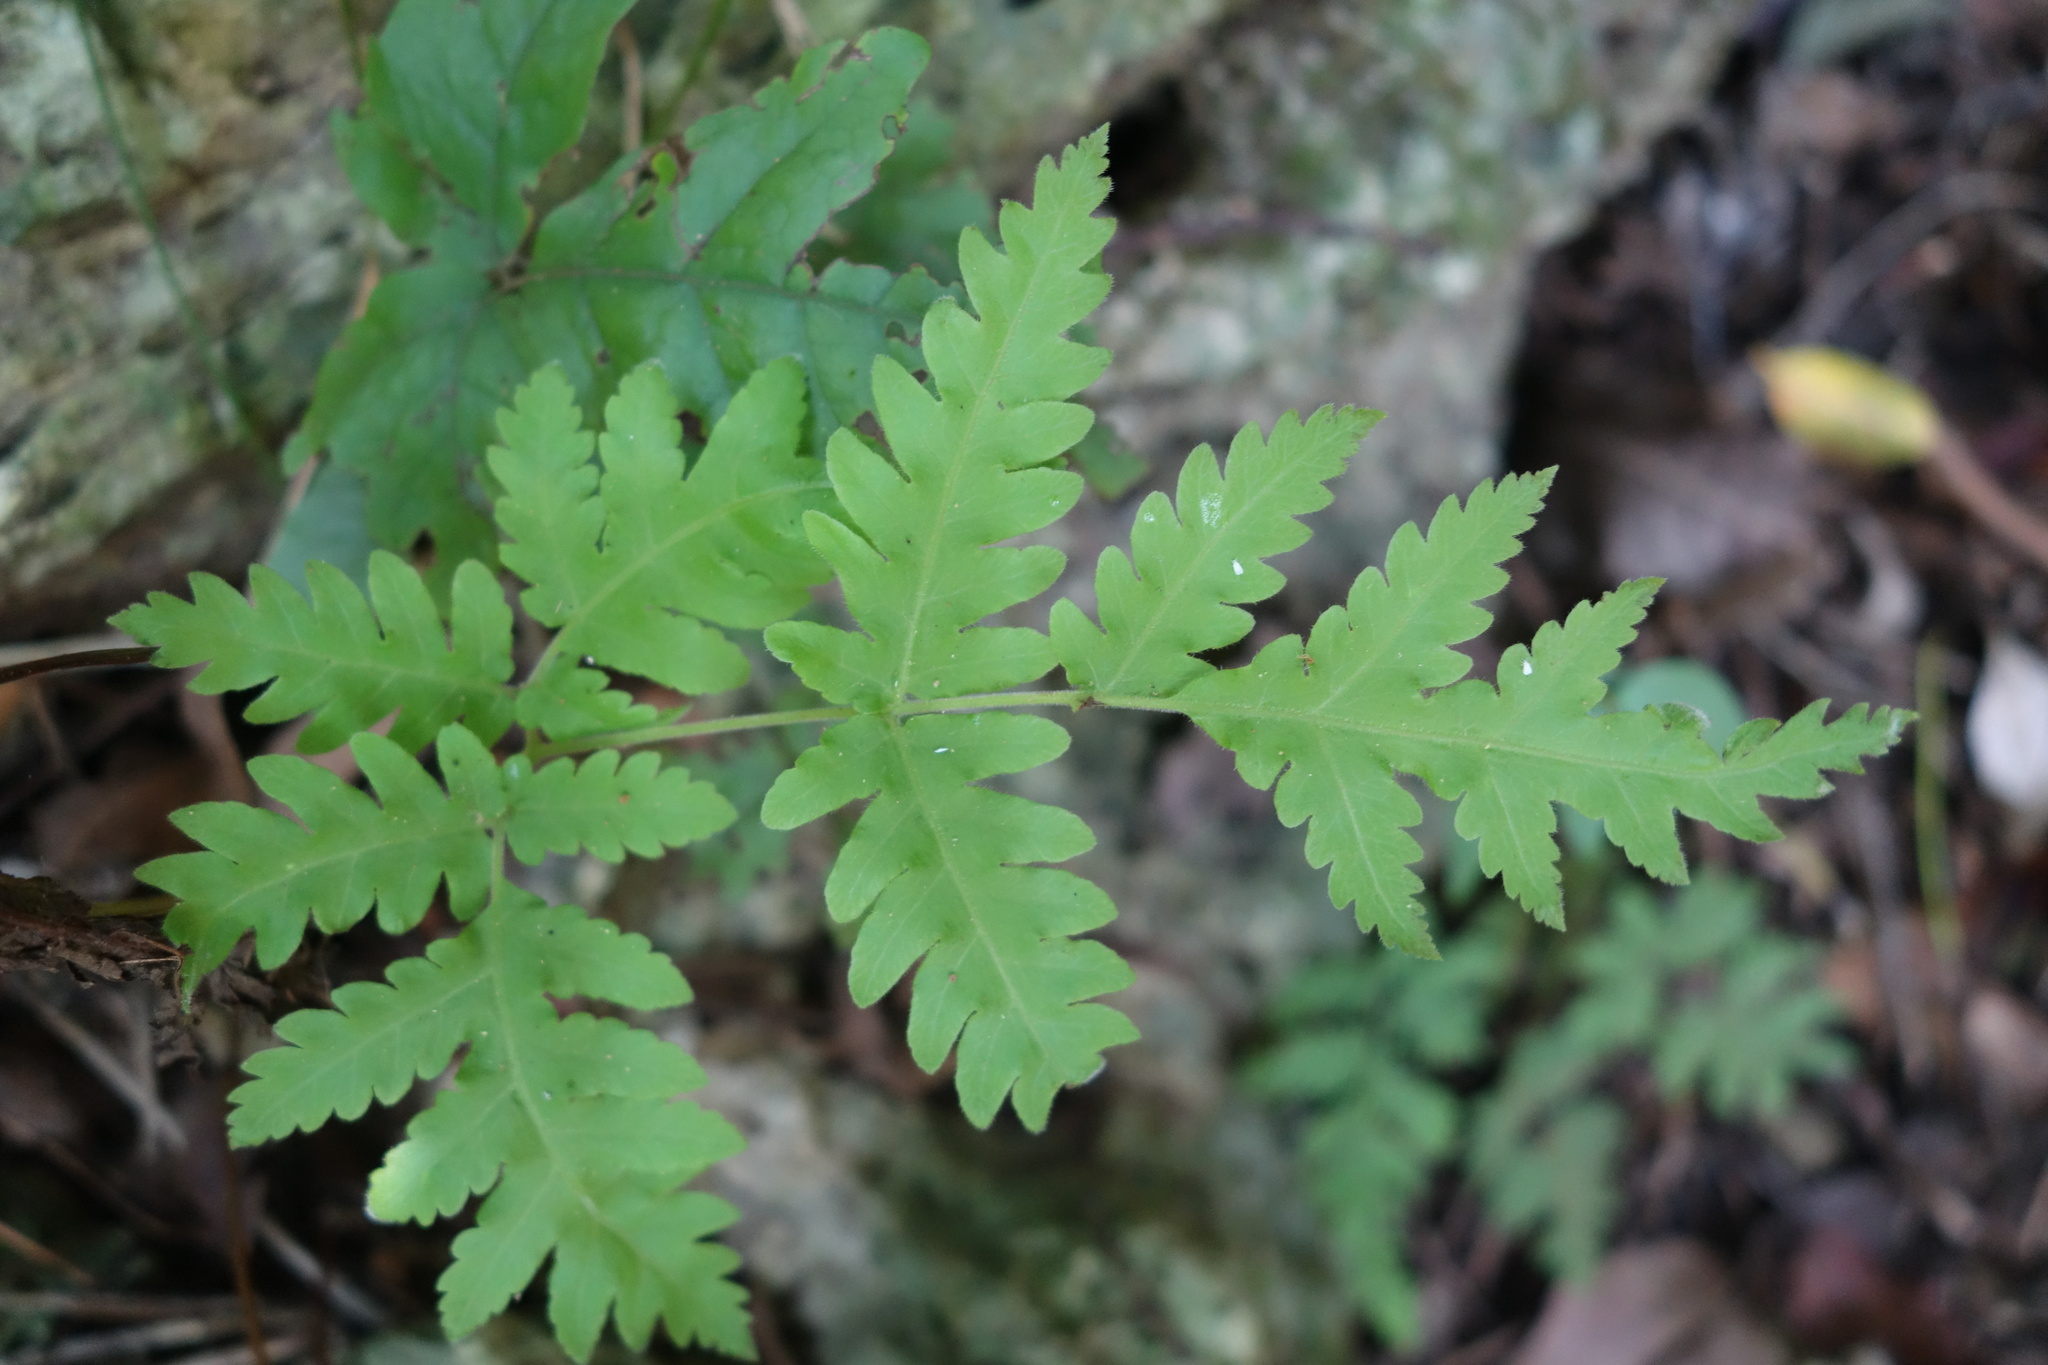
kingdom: Plantae
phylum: Tracheophyta
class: Polypodiopsida
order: Polypodiales
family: Tectariaceae
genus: Tectaria
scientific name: Tectaria membranacea
